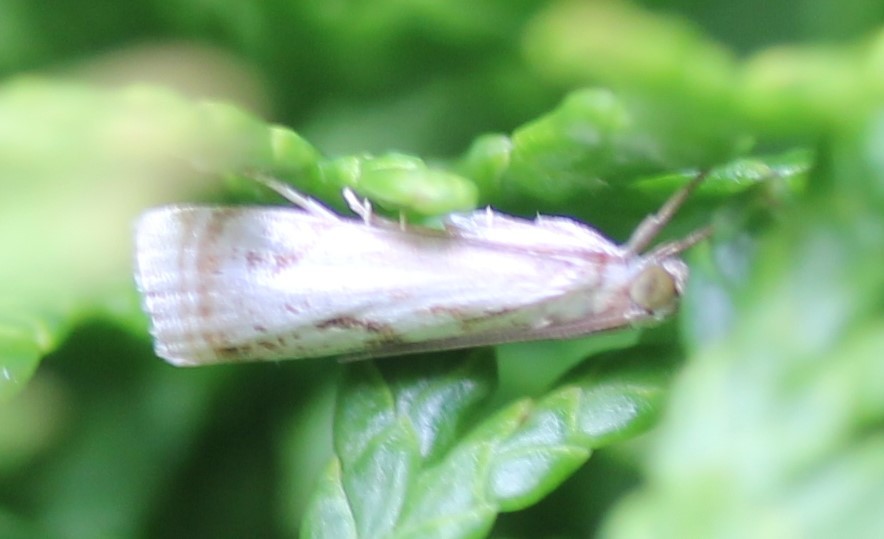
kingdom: Animalia
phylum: Arthropoda
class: Insecta
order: Lepidoptera
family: Crambidae
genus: Microcrambus
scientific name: Microcrambus elegans
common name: Elegant grass-veneer
